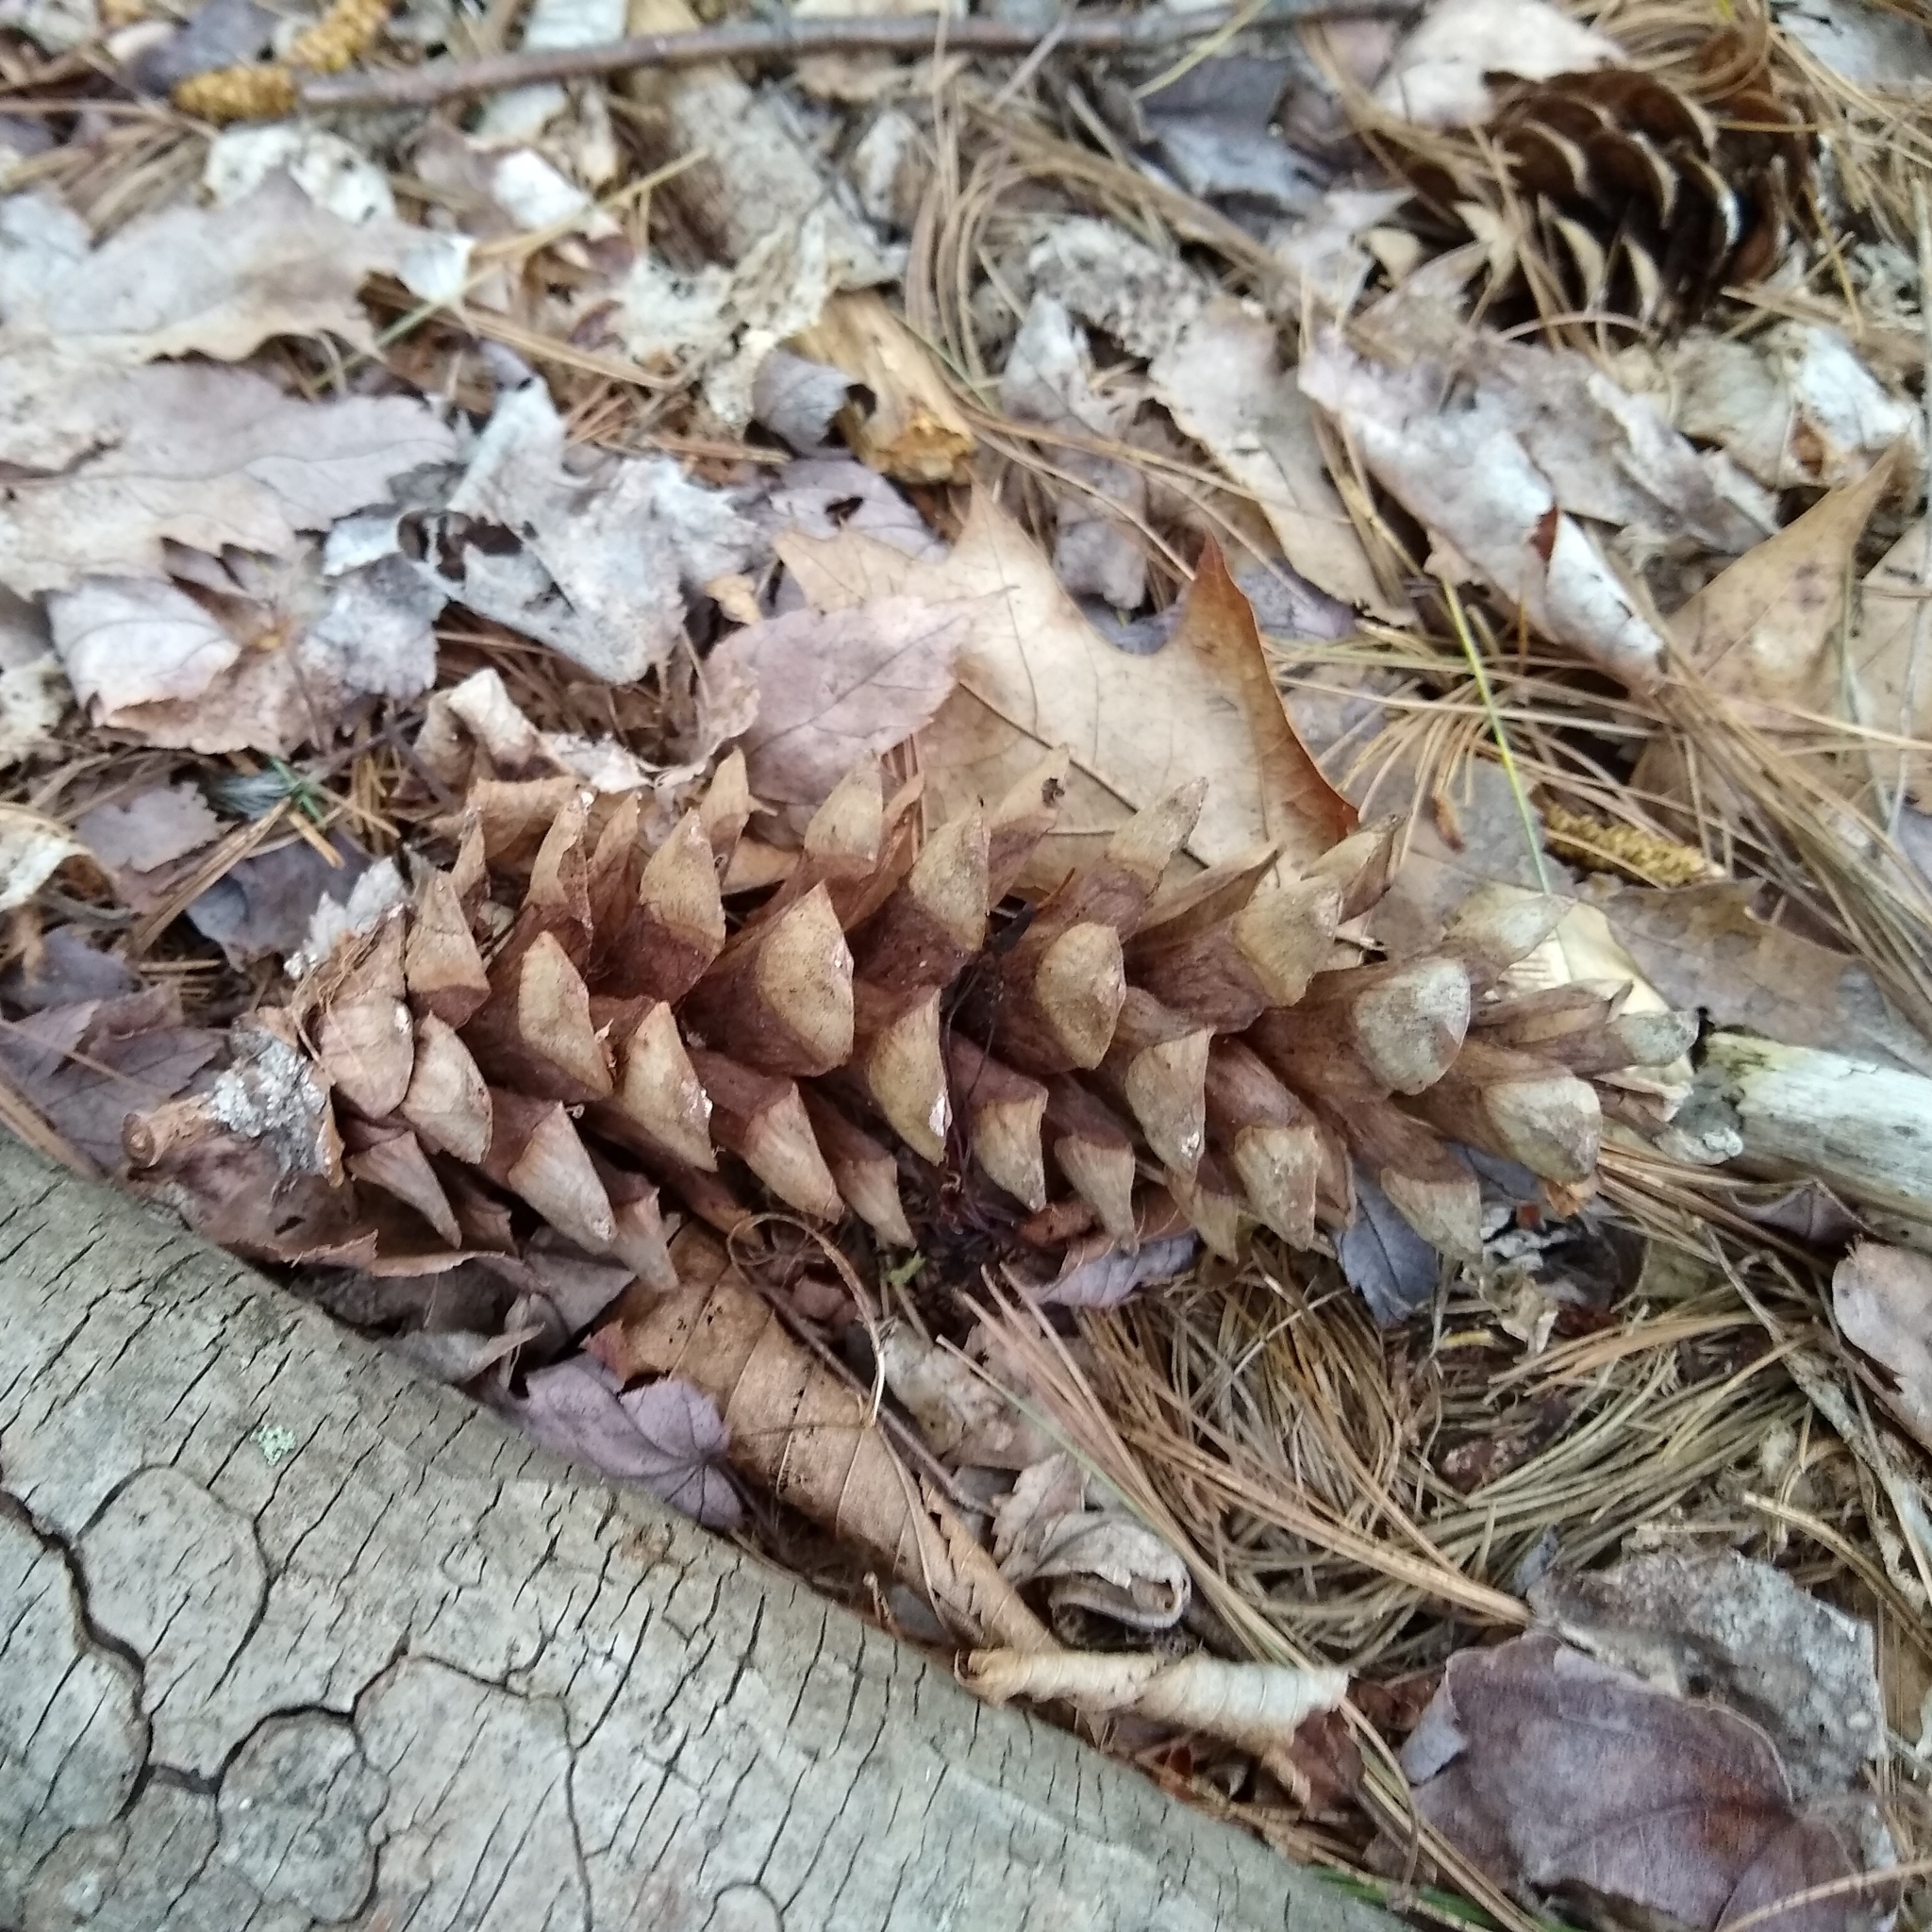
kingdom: Plantae
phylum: Tracheophyta
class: Pinopsida
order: Pinales
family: Pinaceae
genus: Pinus
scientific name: Pinus strobus
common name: Weymouth pine
